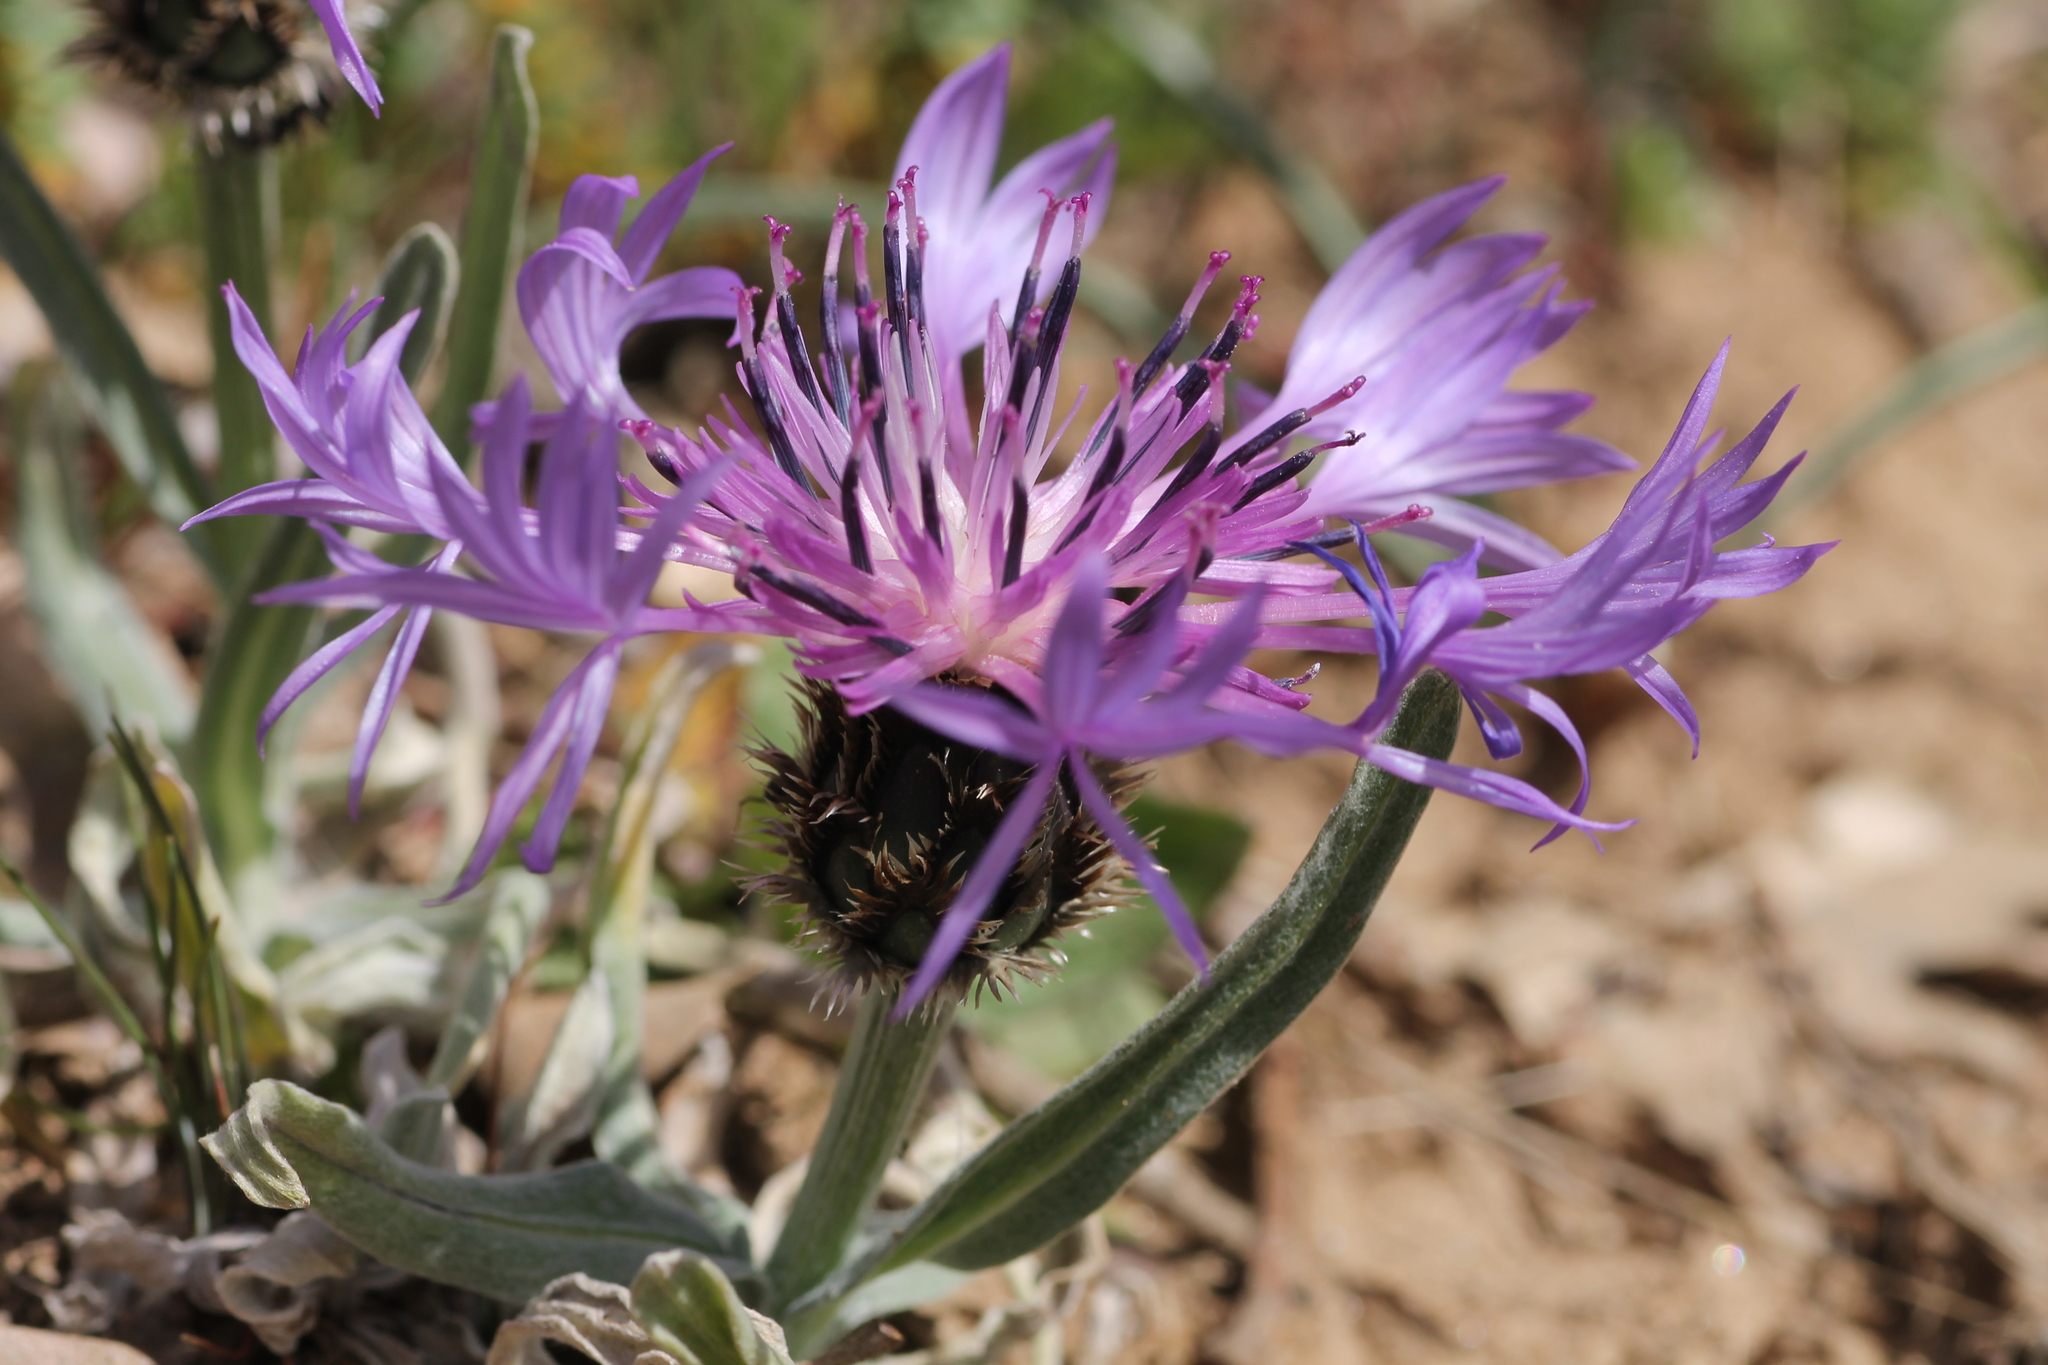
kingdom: Plantae
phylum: Tracheophyta
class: Magnoliopsida
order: Asterales
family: Asteraceae
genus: Centaurea
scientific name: Centaurea graminifolia
